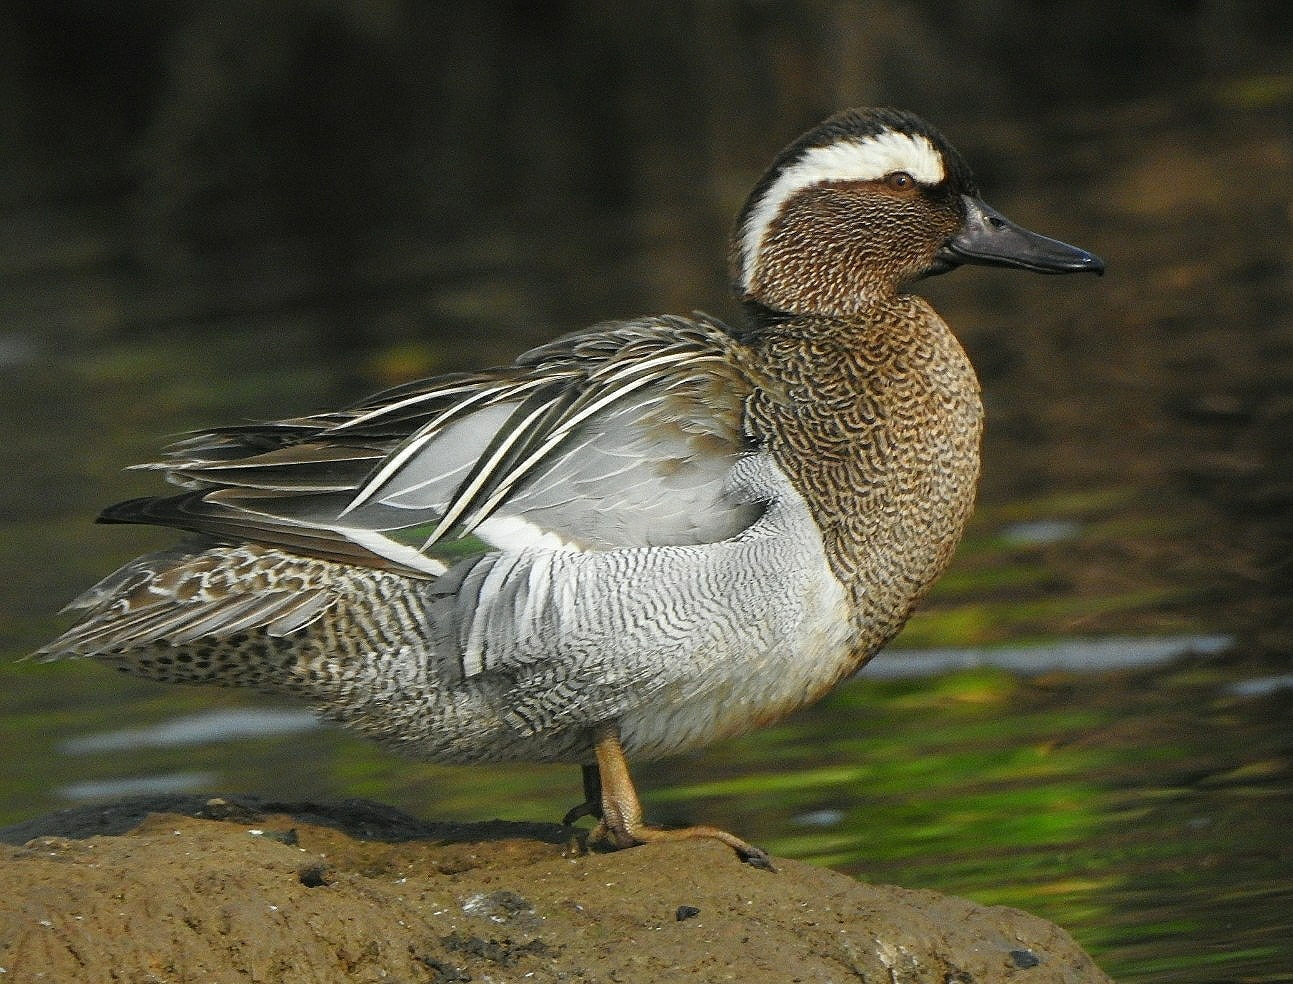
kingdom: Animalia
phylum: Chordata
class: Aves
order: Anseriformes
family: Anatidae
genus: Spatula
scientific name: Spatula querquedula
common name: Garganey
